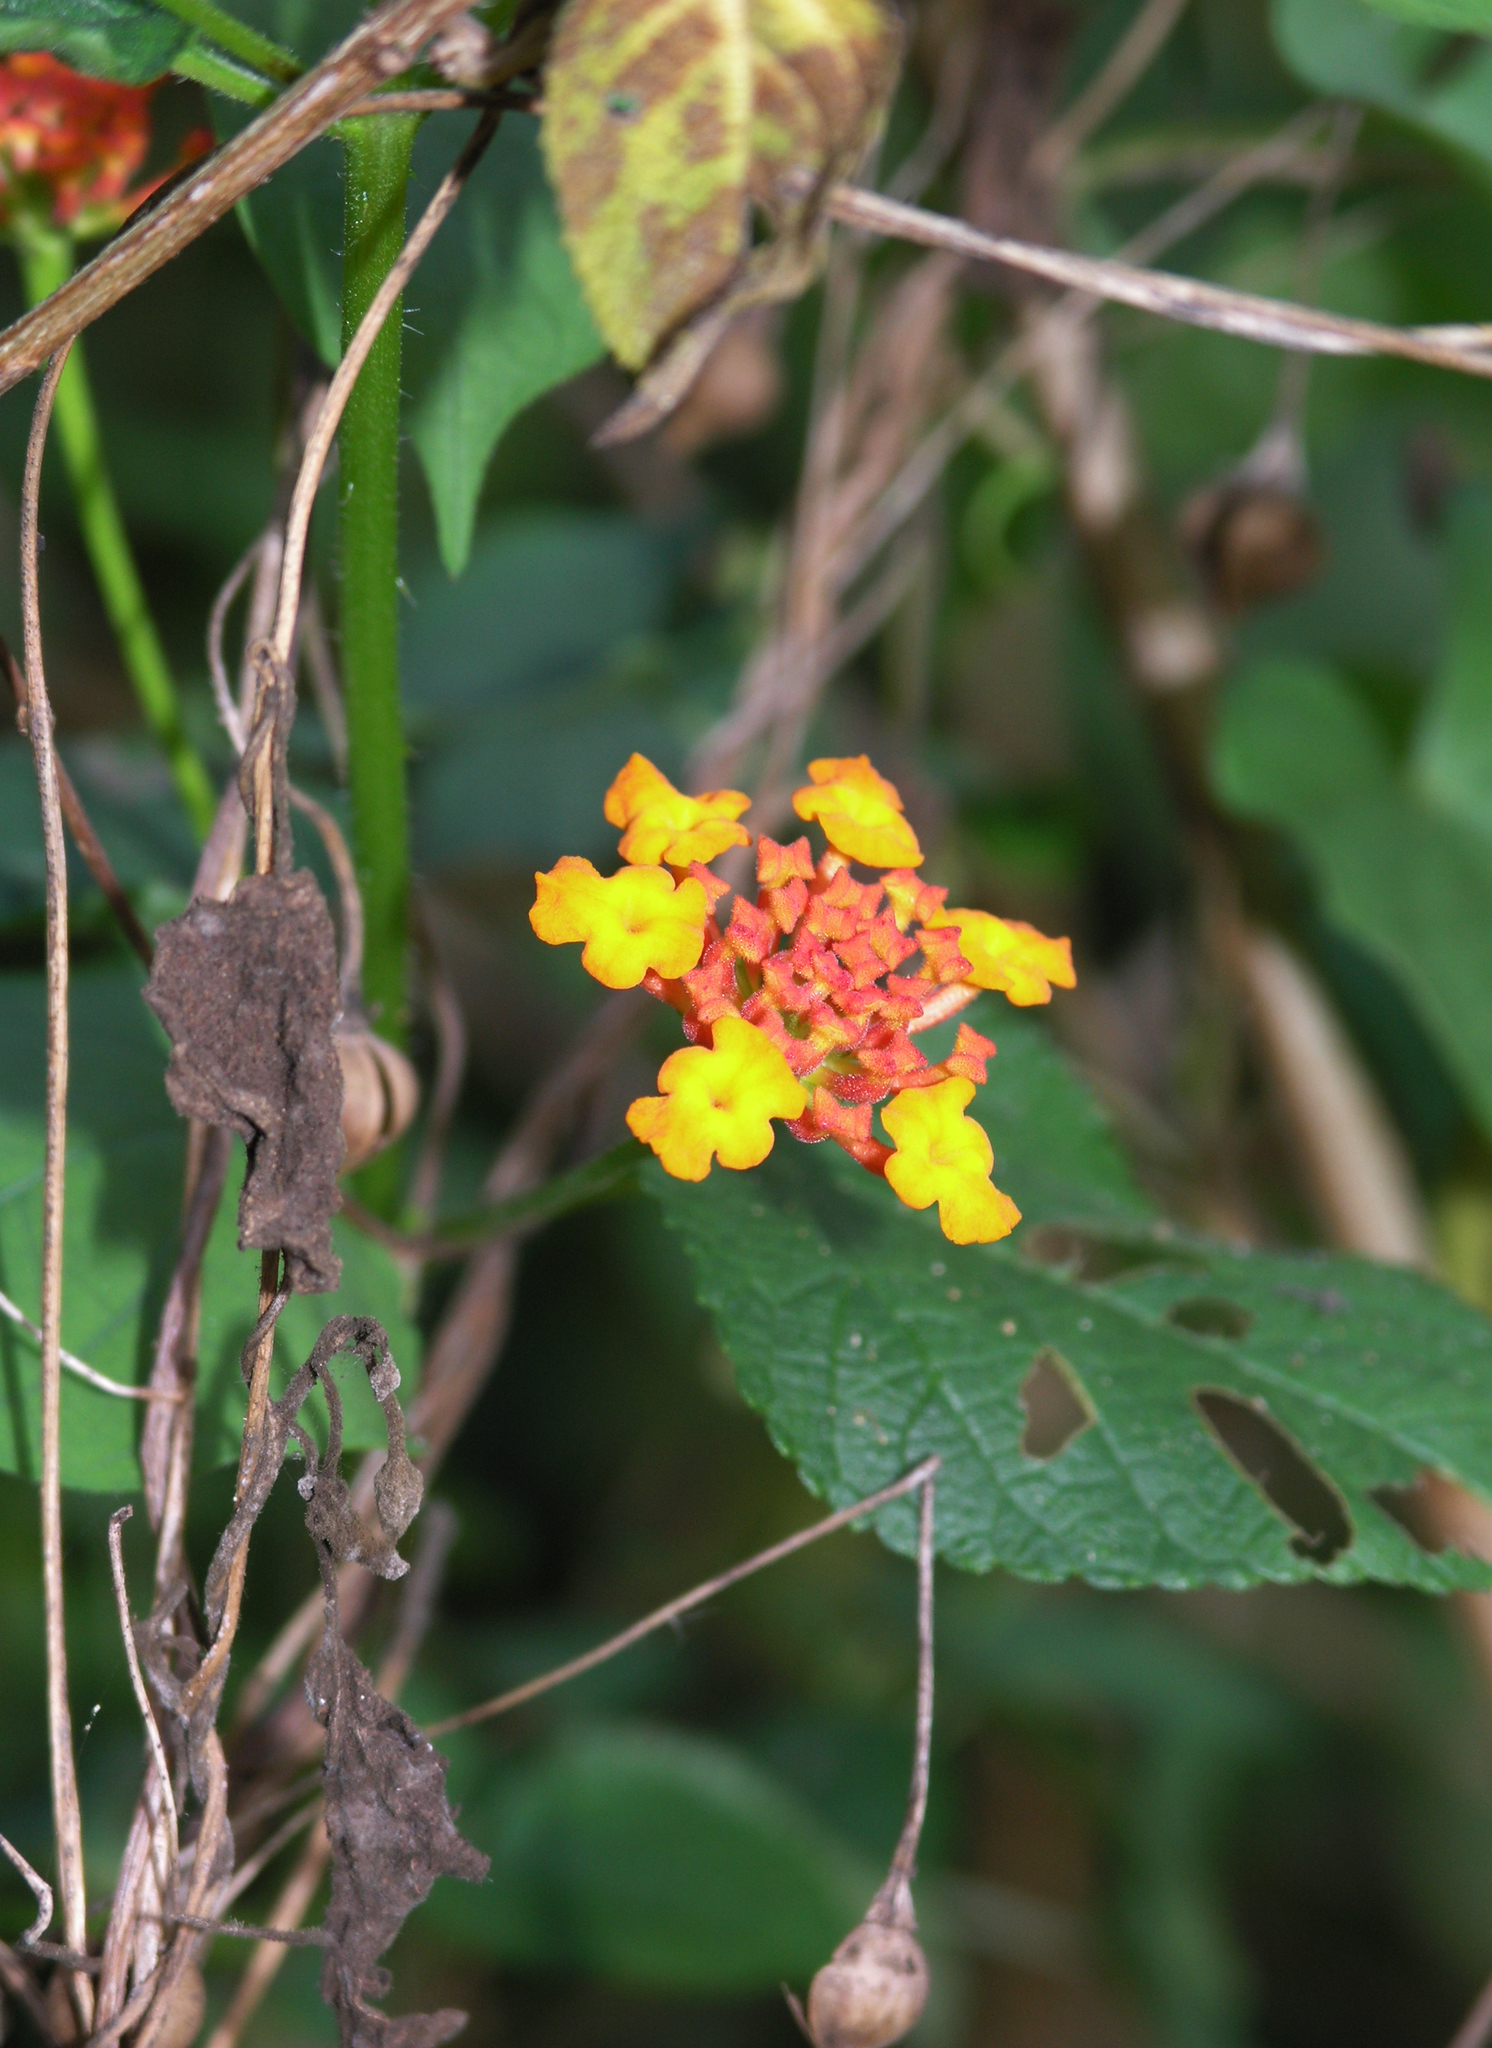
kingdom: Plantae
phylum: Tracheophyta
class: Magnoliopsida
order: Lamiales
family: Verbenaceae
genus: Lantana
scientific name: Lantana camara
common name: Lantana
